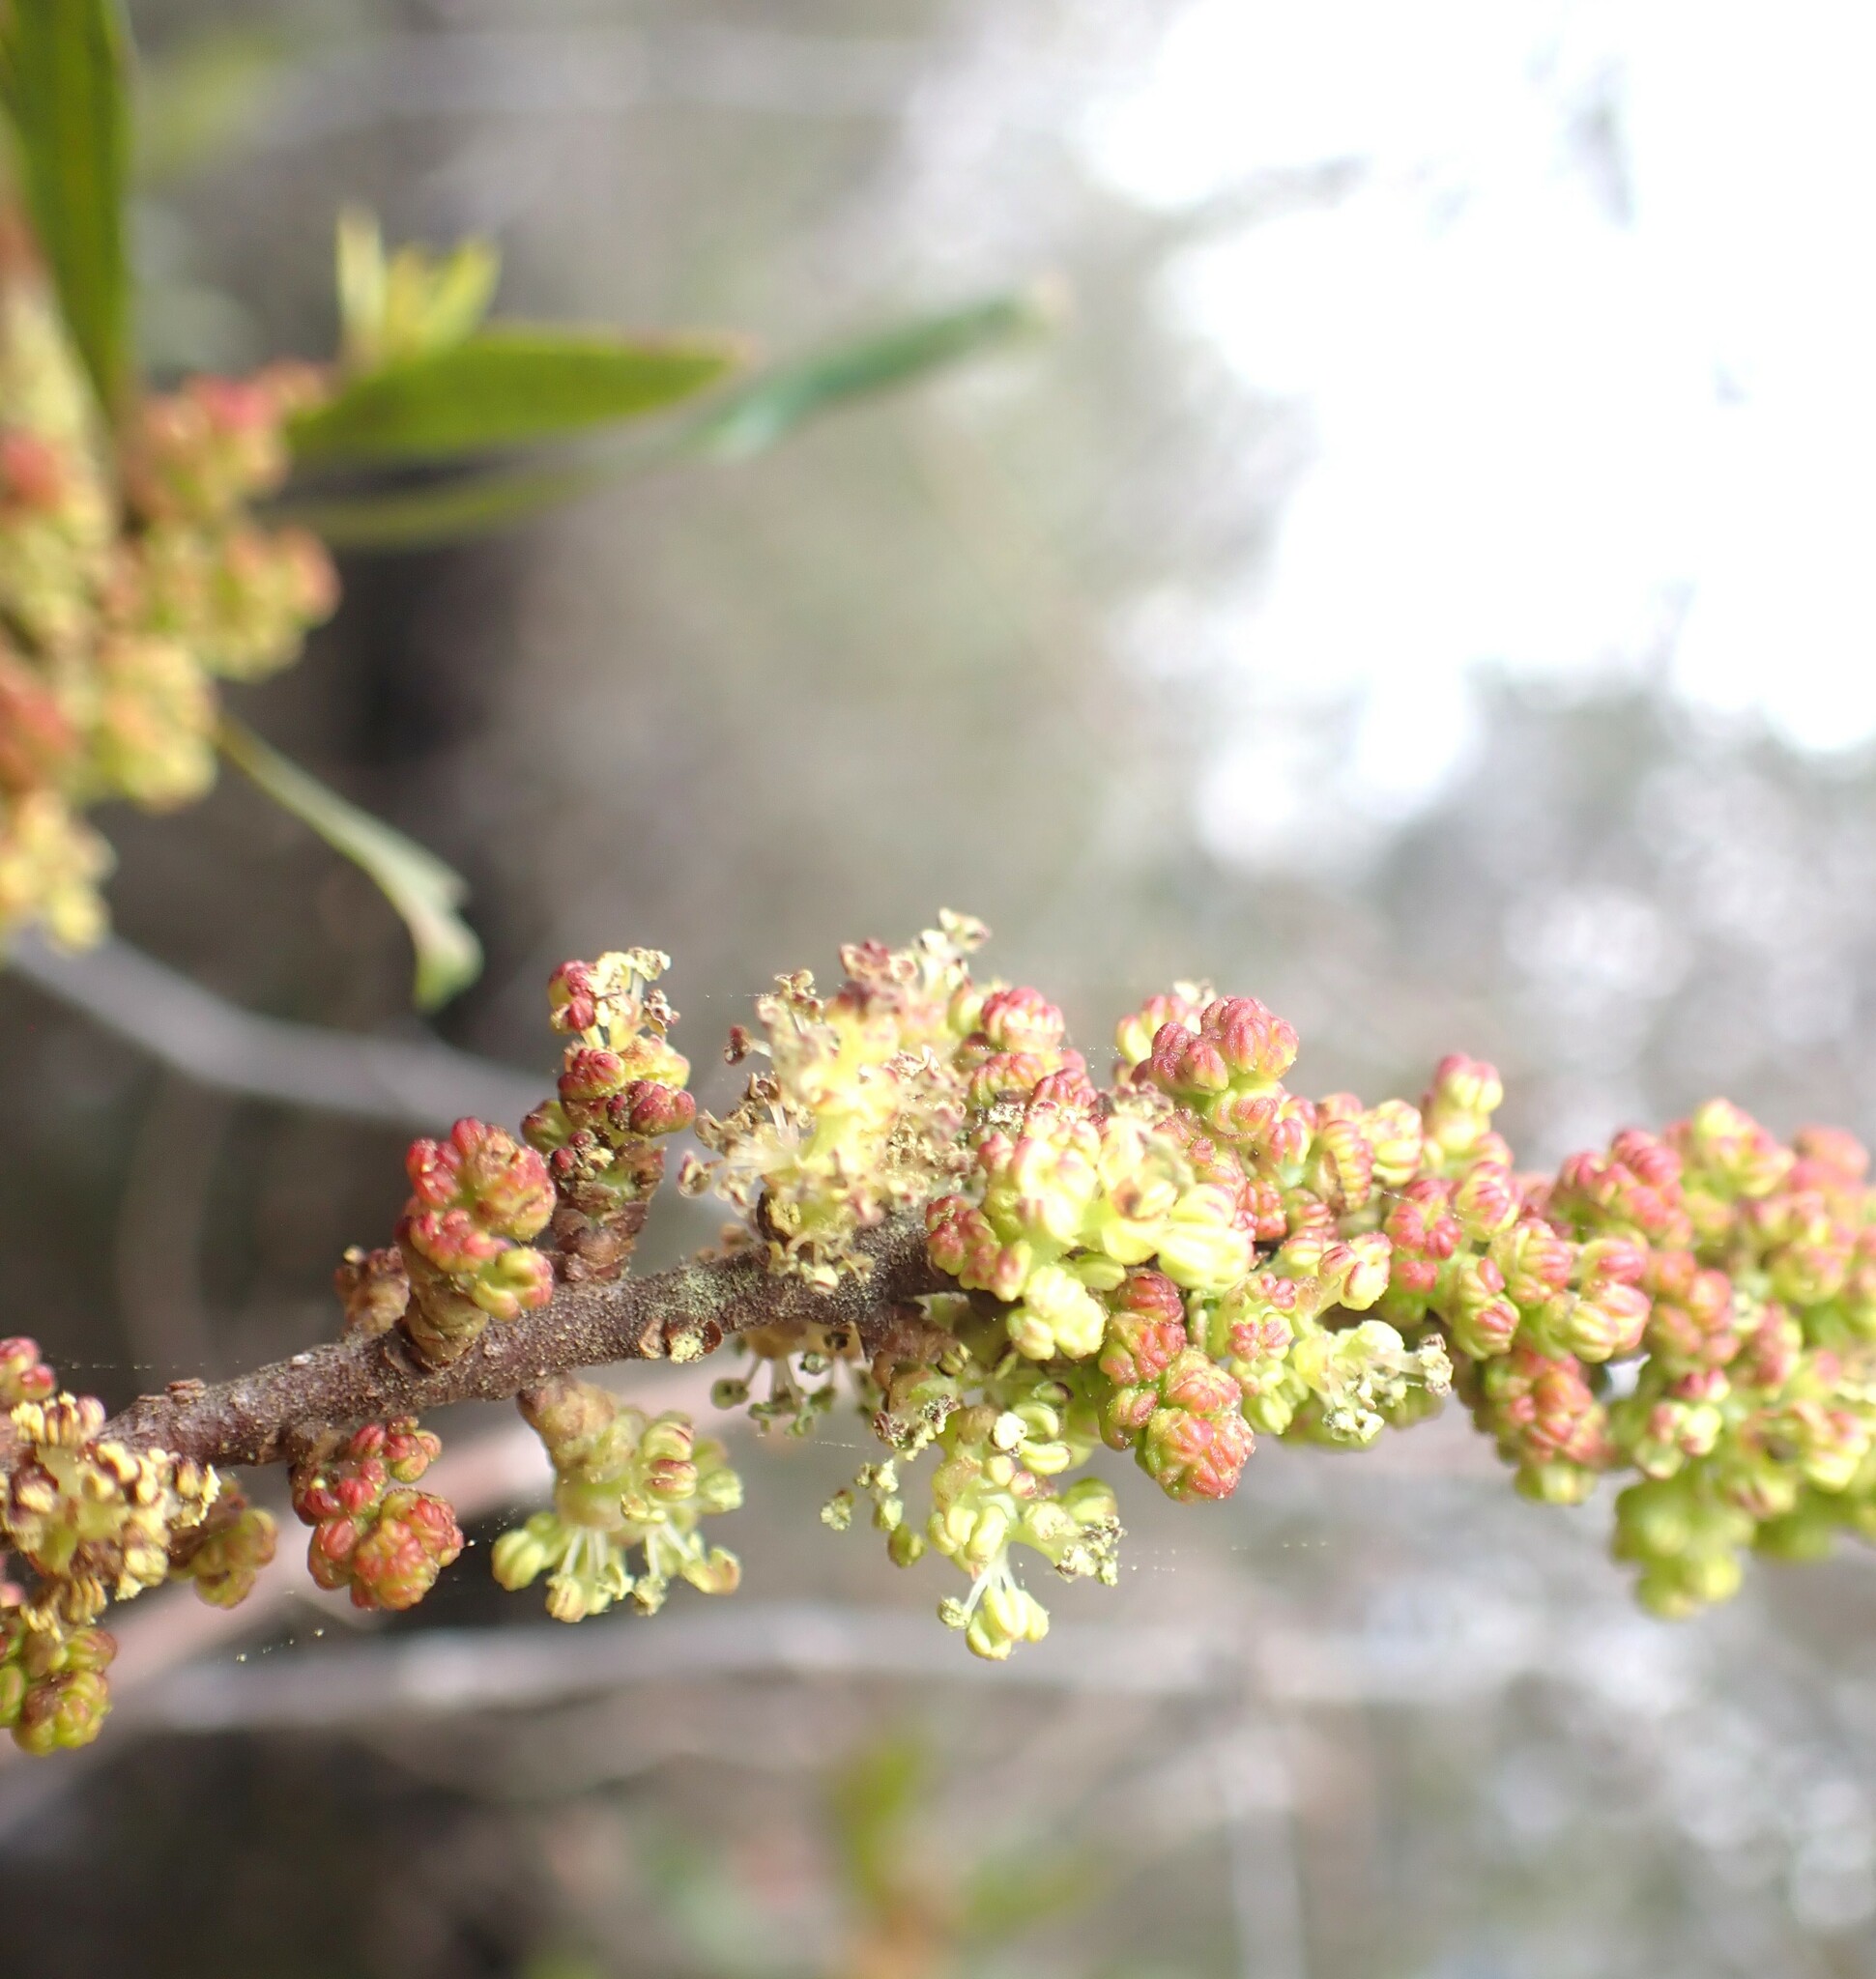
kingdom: Plantae
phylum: Tracheophyta
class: Magnoliopsida
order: Fagales
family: Myricaceae
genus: Morella
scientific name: Morella cerifera
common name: Wax myrtle
